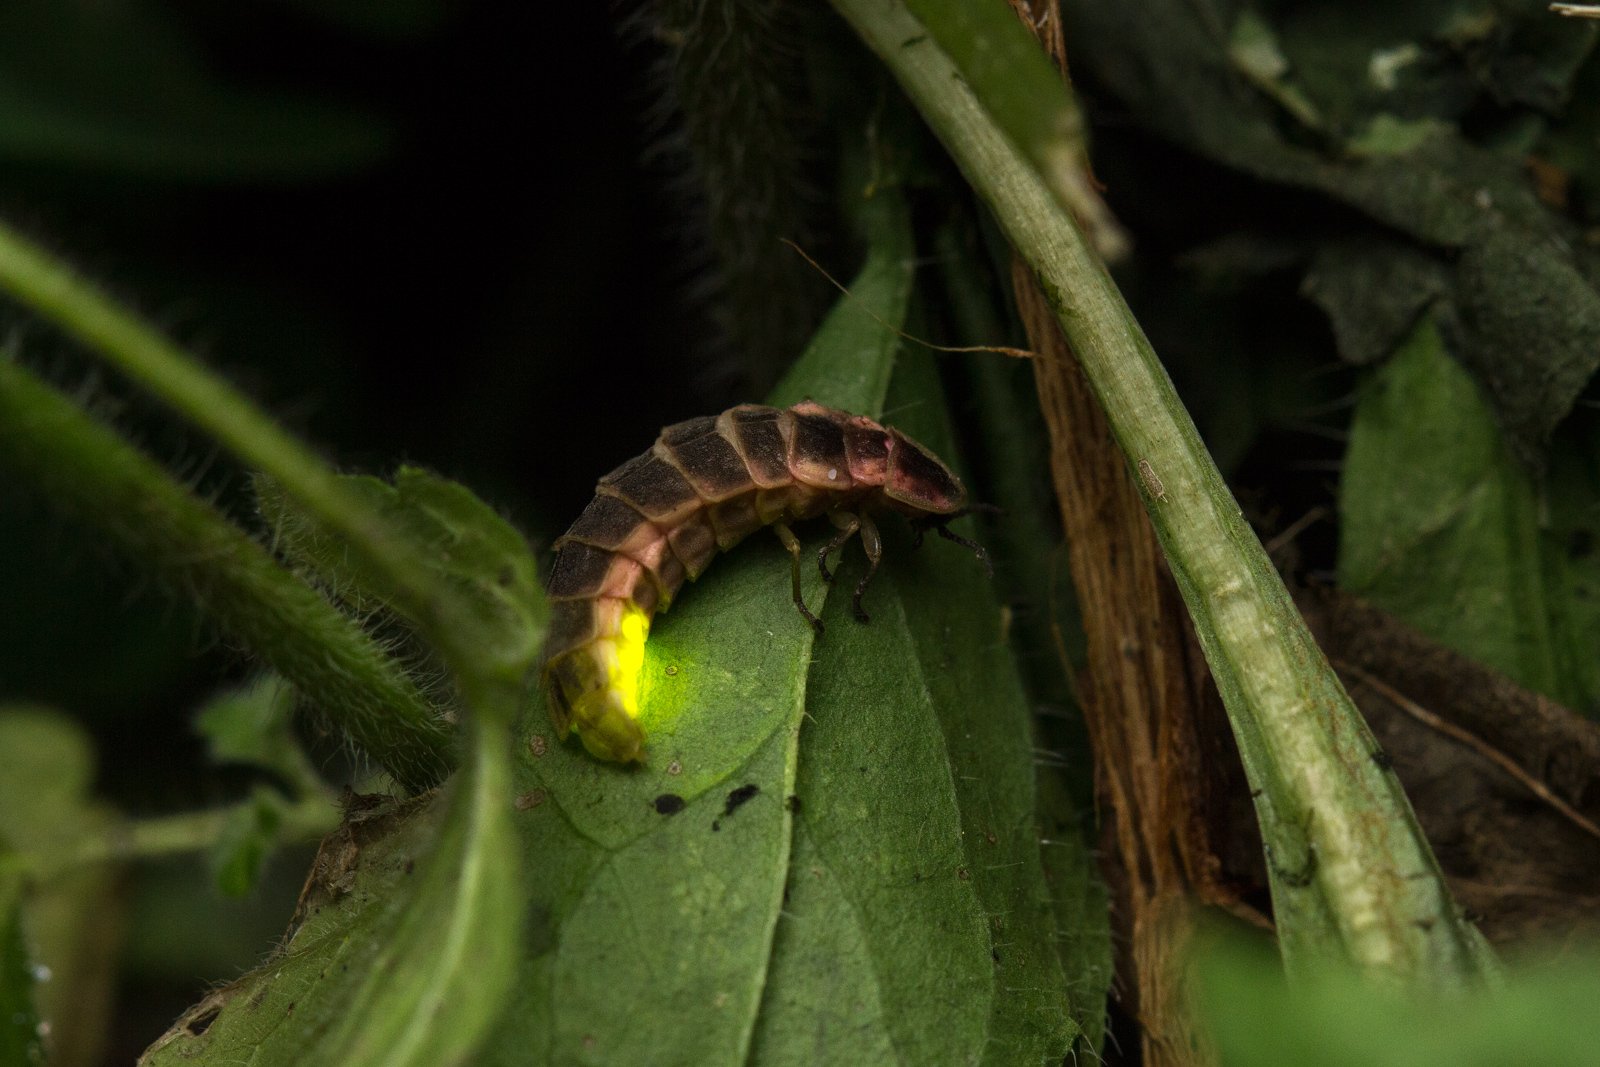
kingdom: Animalia
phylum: Arthropoda
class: Insecta
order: Coleoptera
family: Lampyridae
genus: Lampyris
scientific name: Lampyris noctiluca
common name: Glow-worm
